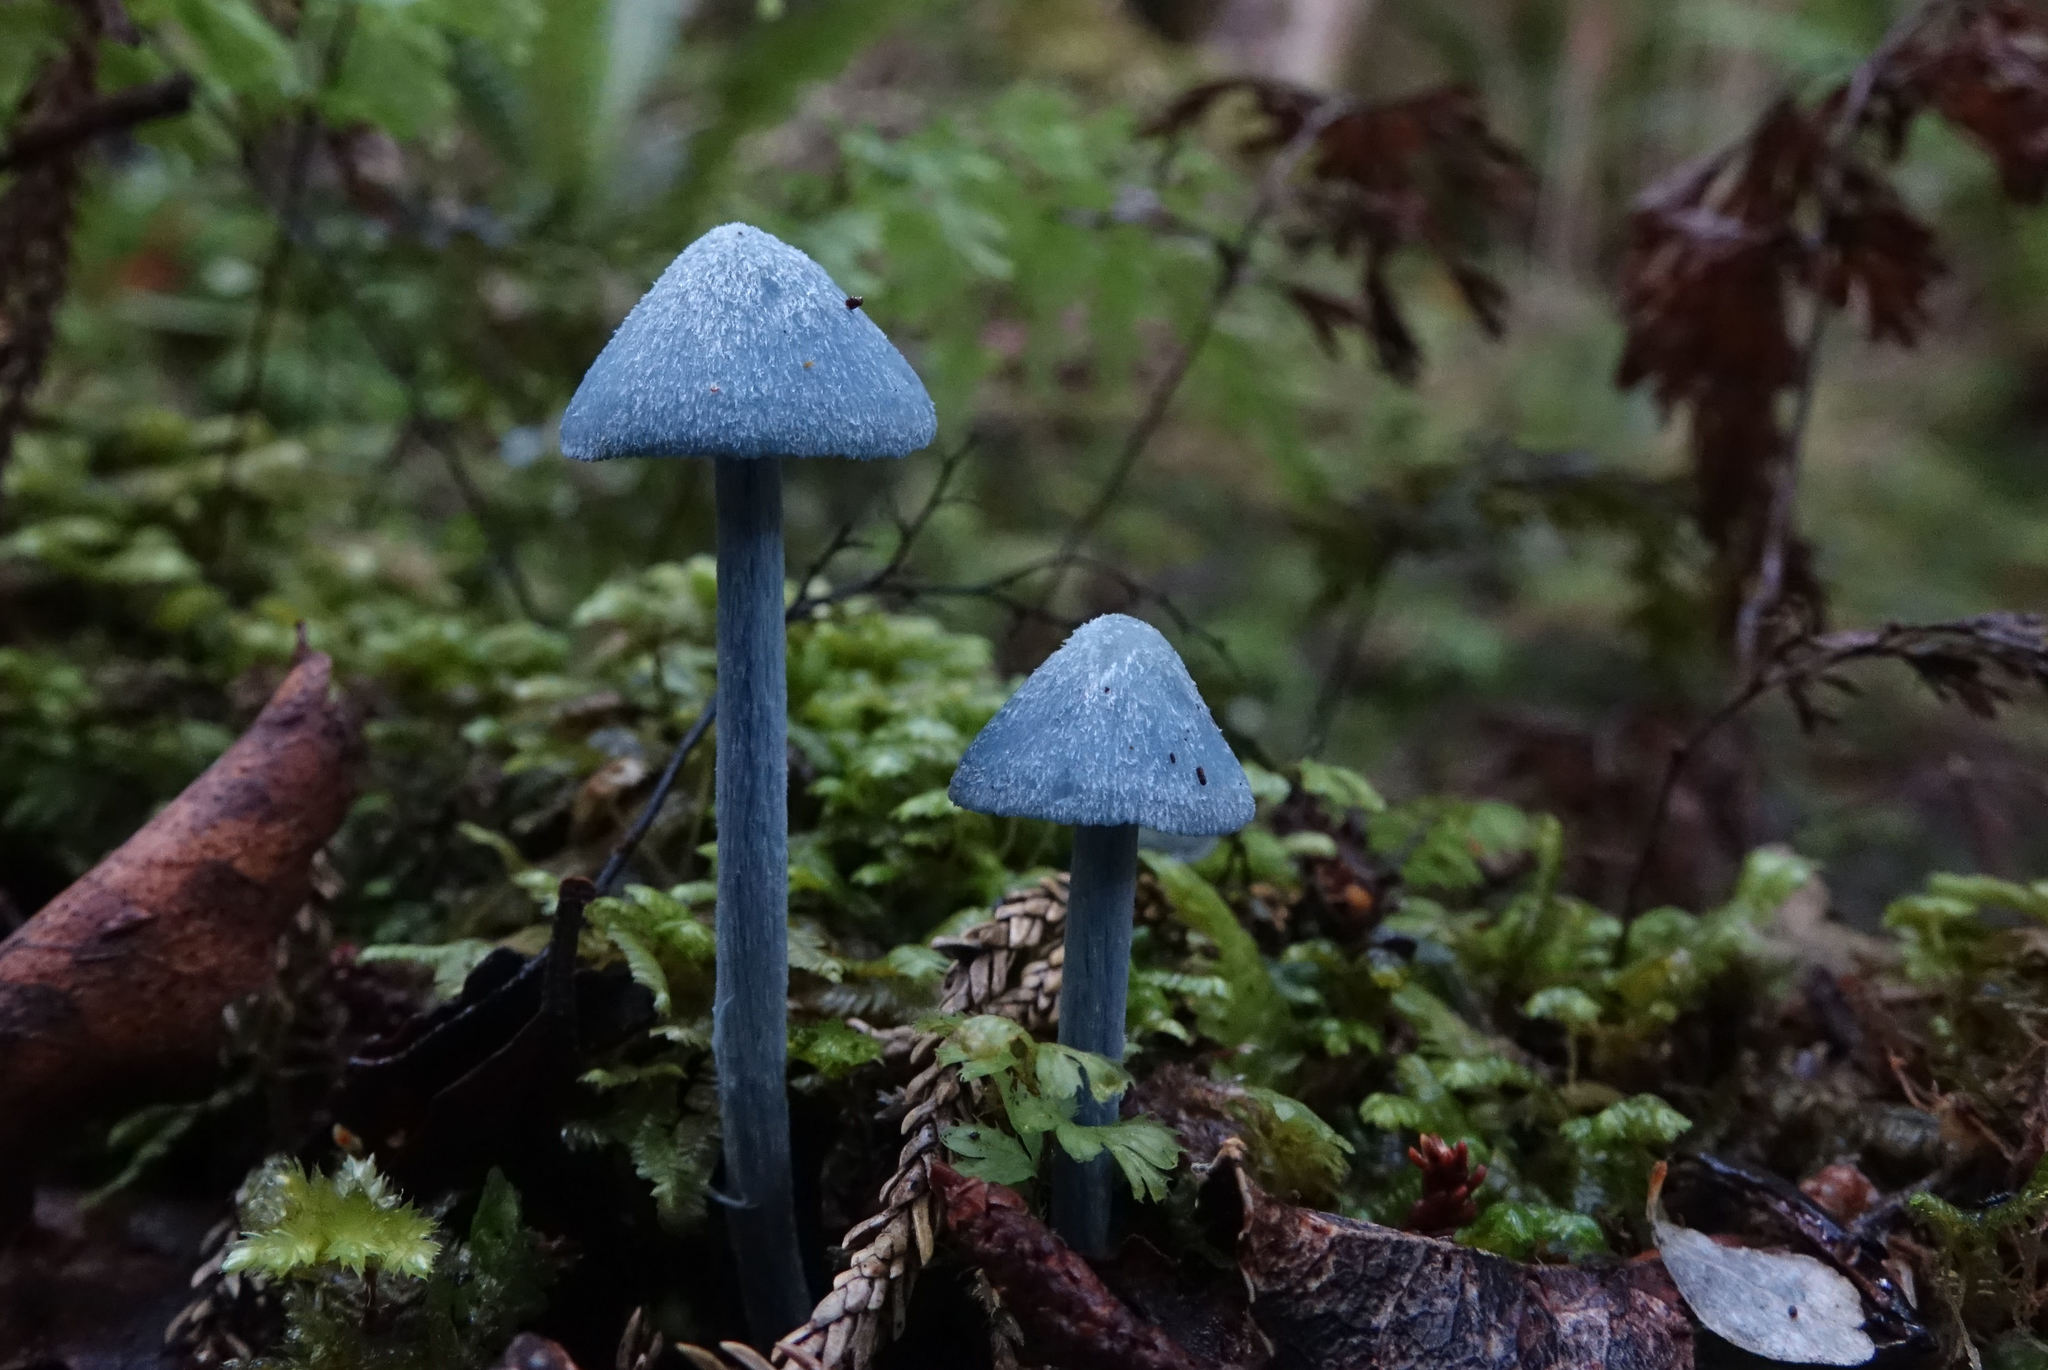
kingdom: Fungi
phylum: Basidiomycota
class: Agaricomycetes
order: Agaricales
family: Entolomataceae
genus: Entoloma
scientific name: Entoloma hochstetteri
